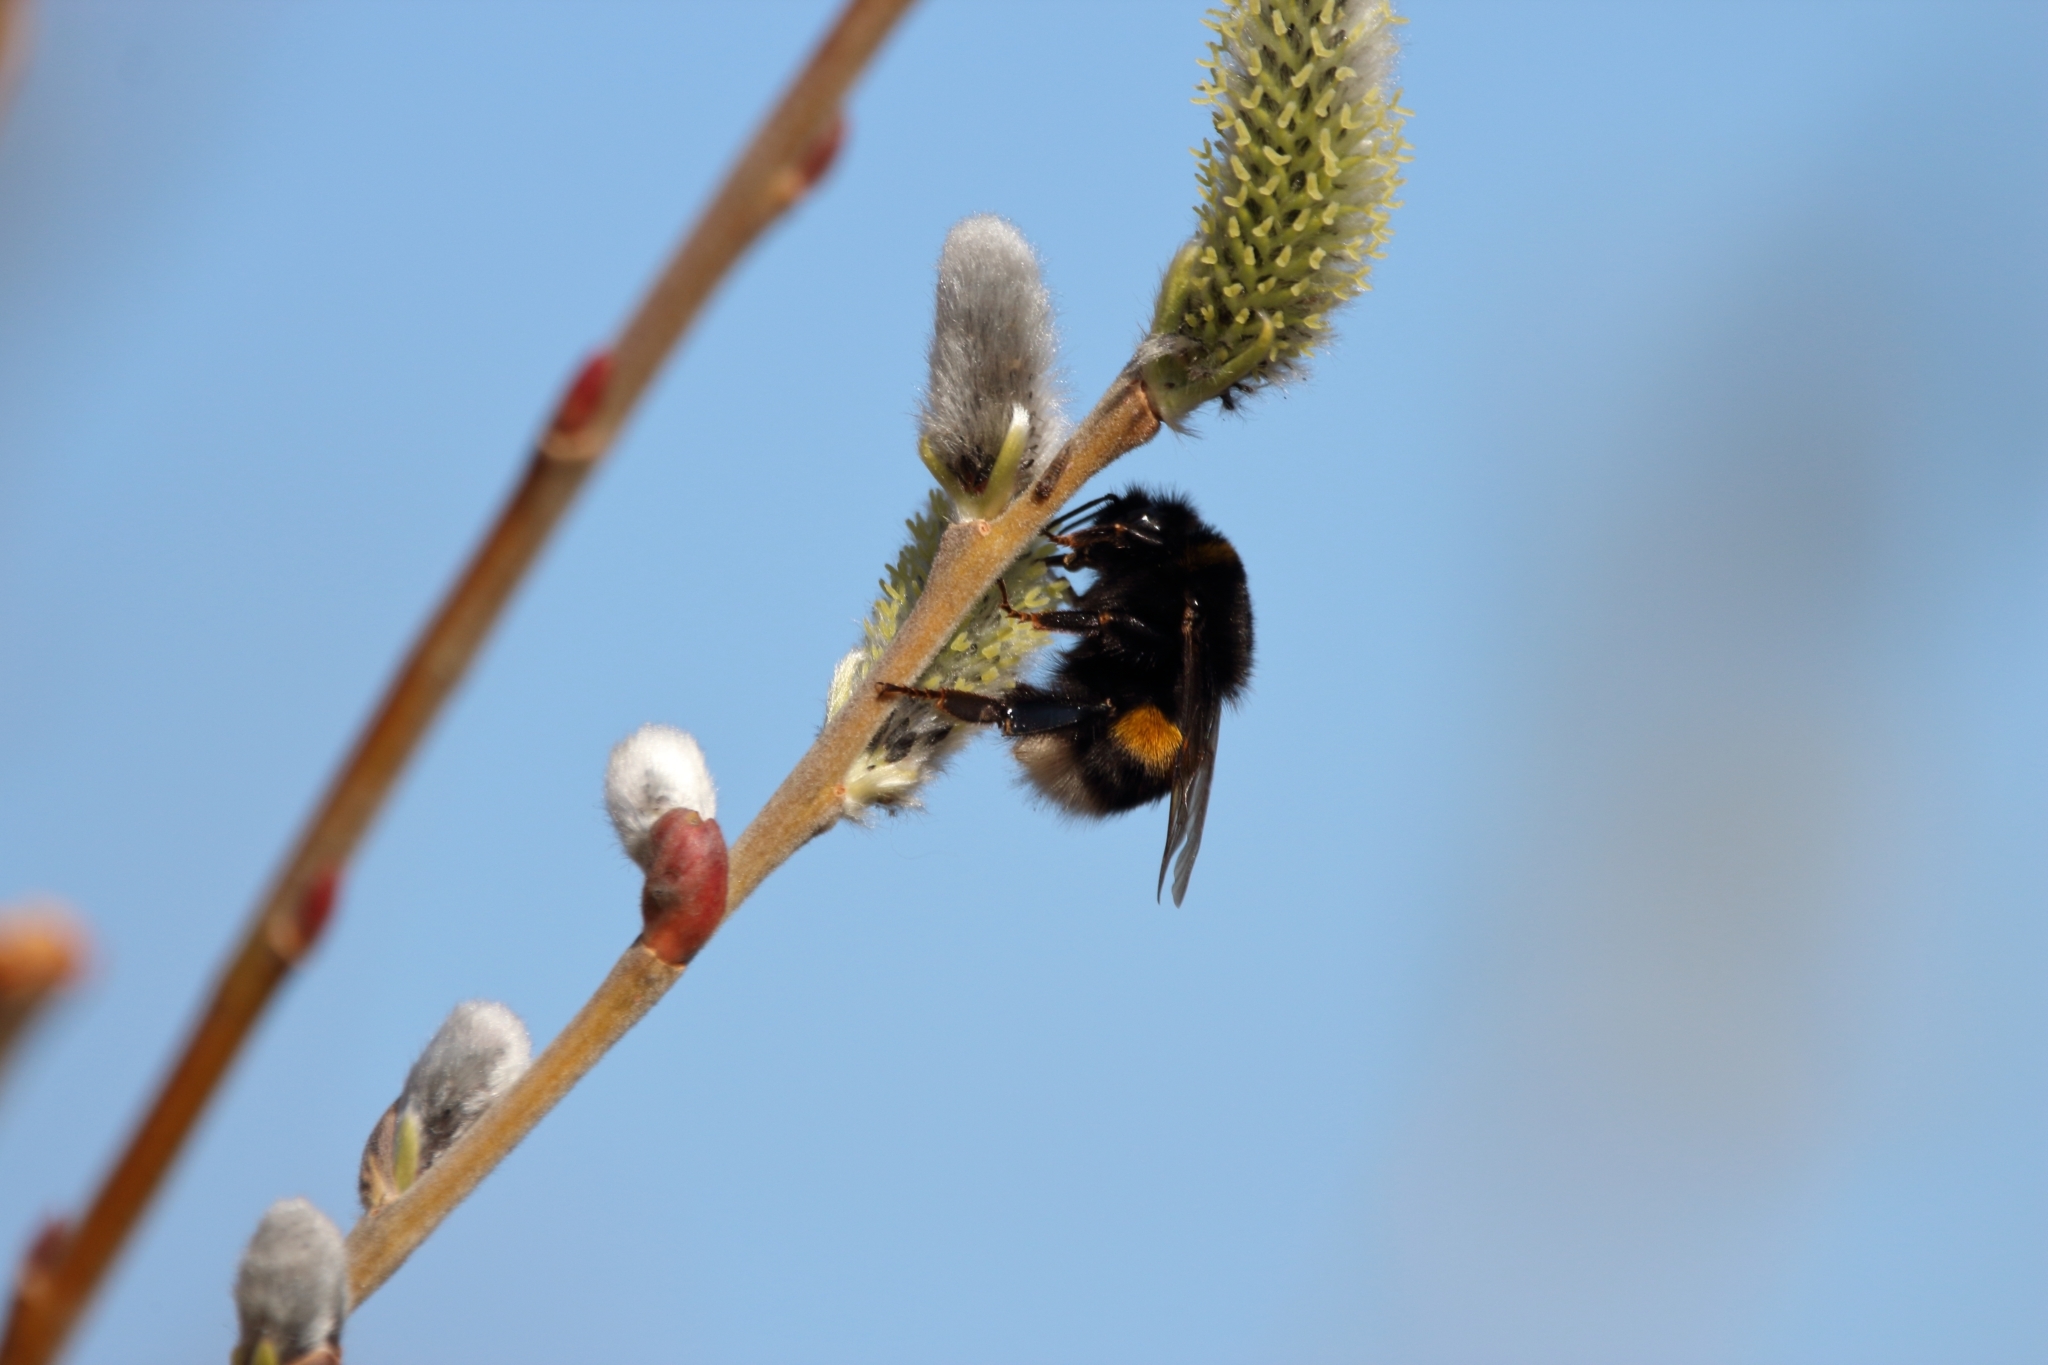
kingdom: Animalia
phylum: Arthropoda
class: Insecta
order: Hymenoptera
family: Apidae
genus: Bombus
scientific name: Bombus terrestris
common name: Buff-tailed bumblebee
